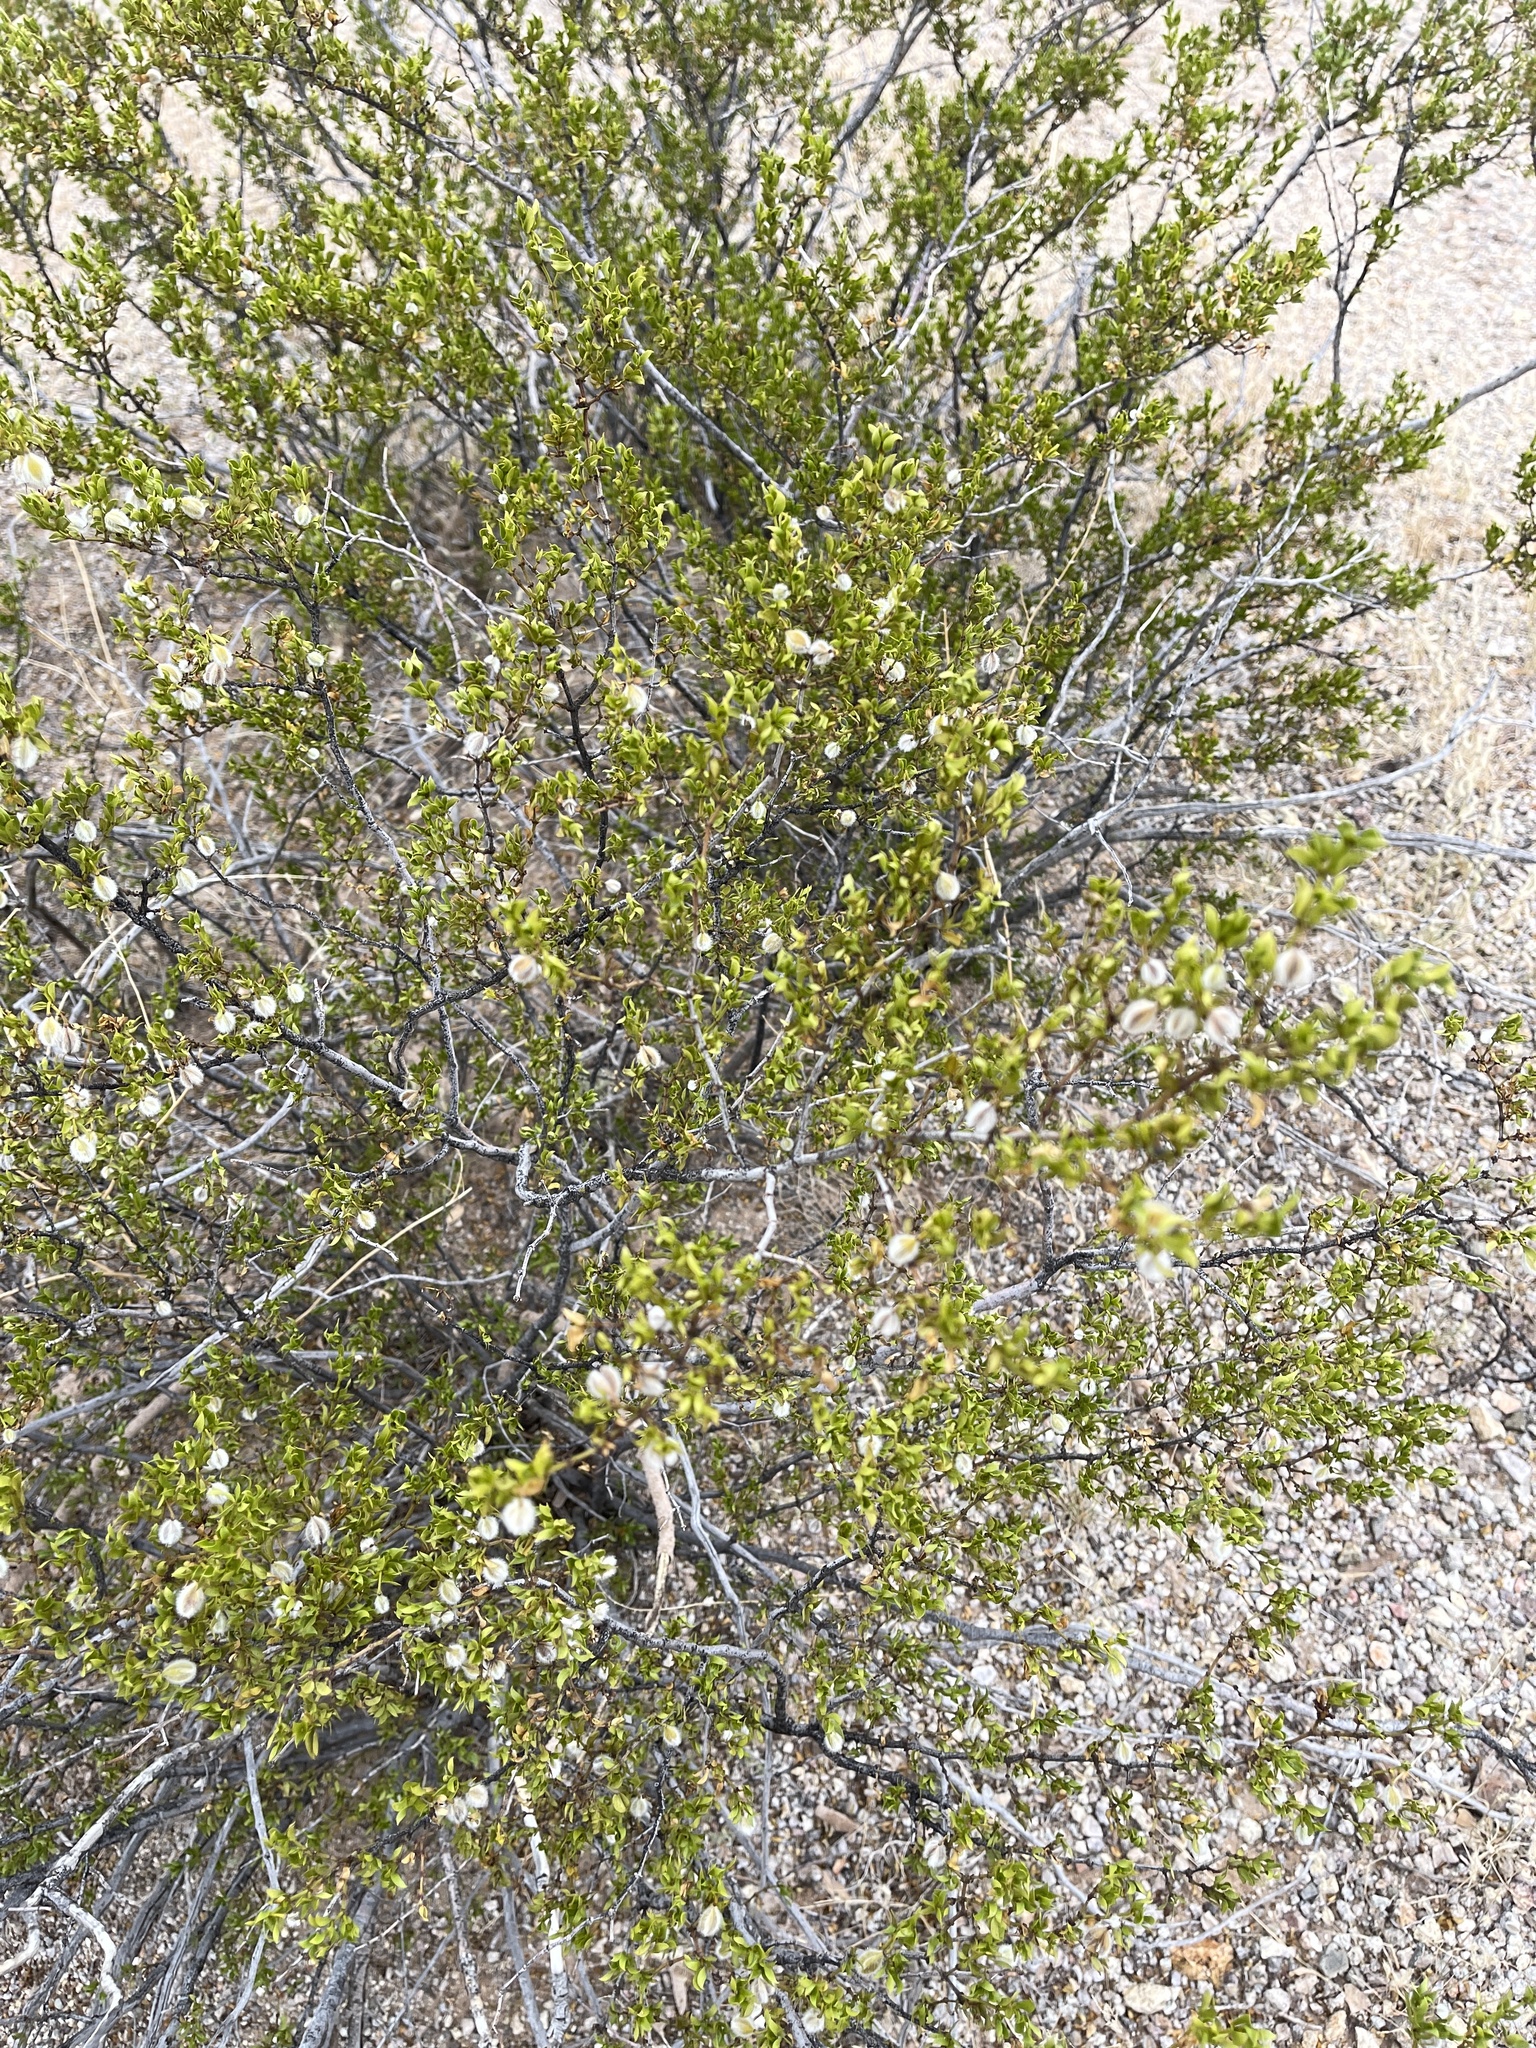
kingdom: Plantae
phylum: Tracheophyta
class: Magnoliopsida
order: Zygophyllales
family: Zygophyllaceae
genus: Larrea
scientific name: Larrea tridentata
